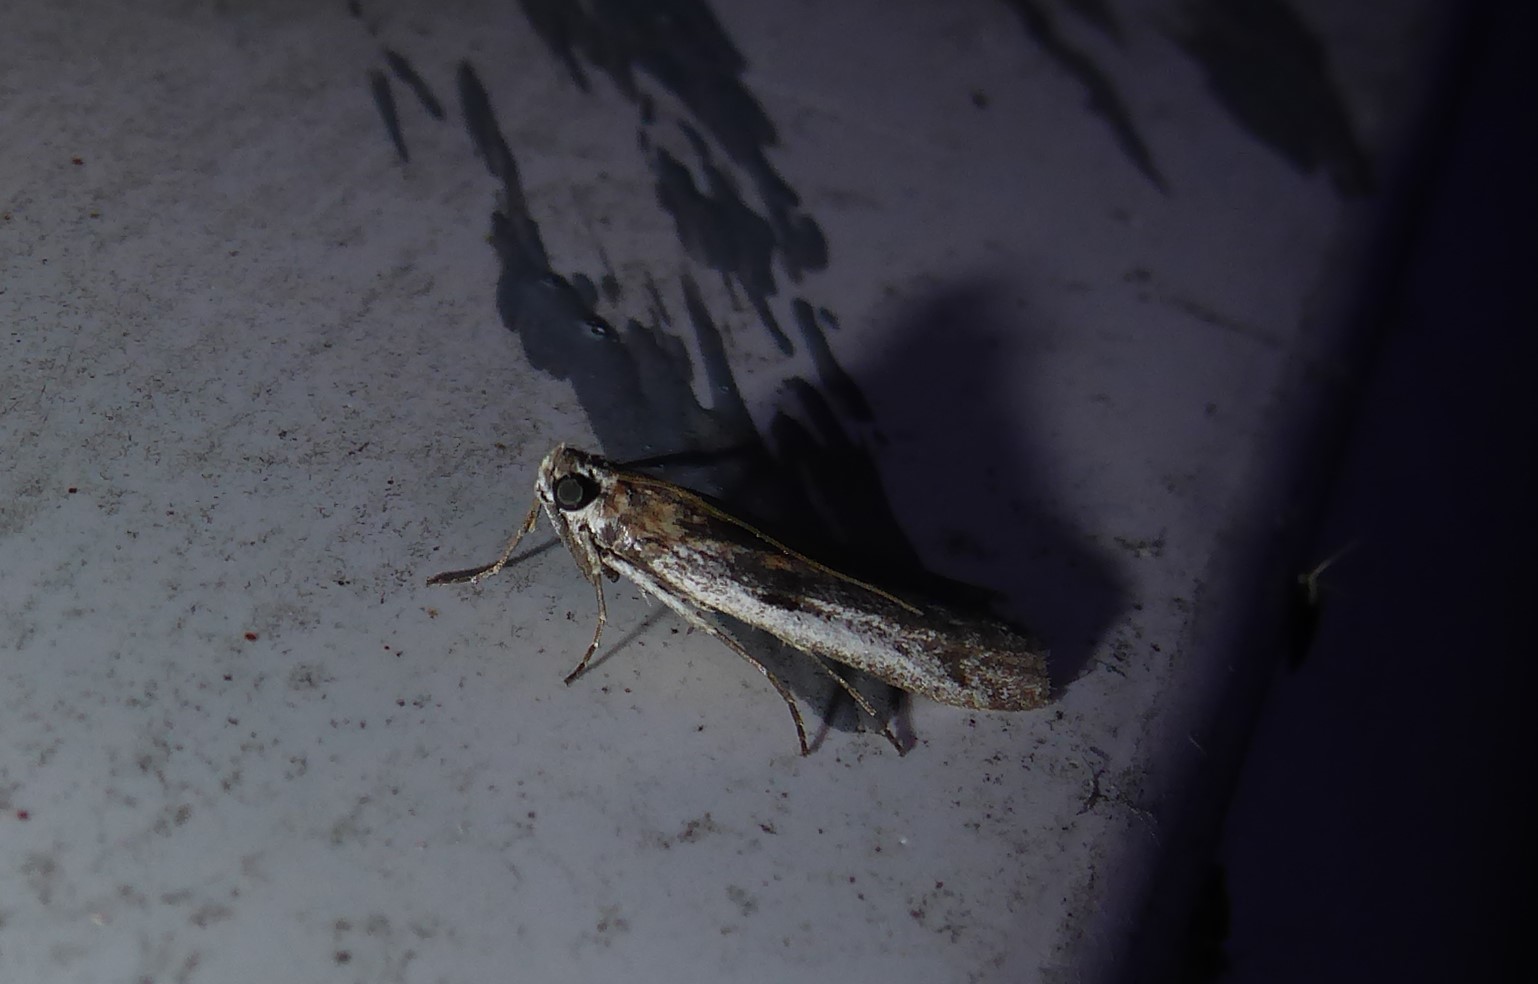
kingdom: Animalia
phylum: Arthropoda
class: Insecta
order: Lepidoptera
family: Pyralidae
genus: Patagoniodes
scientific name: Patagoniodes farinaria
